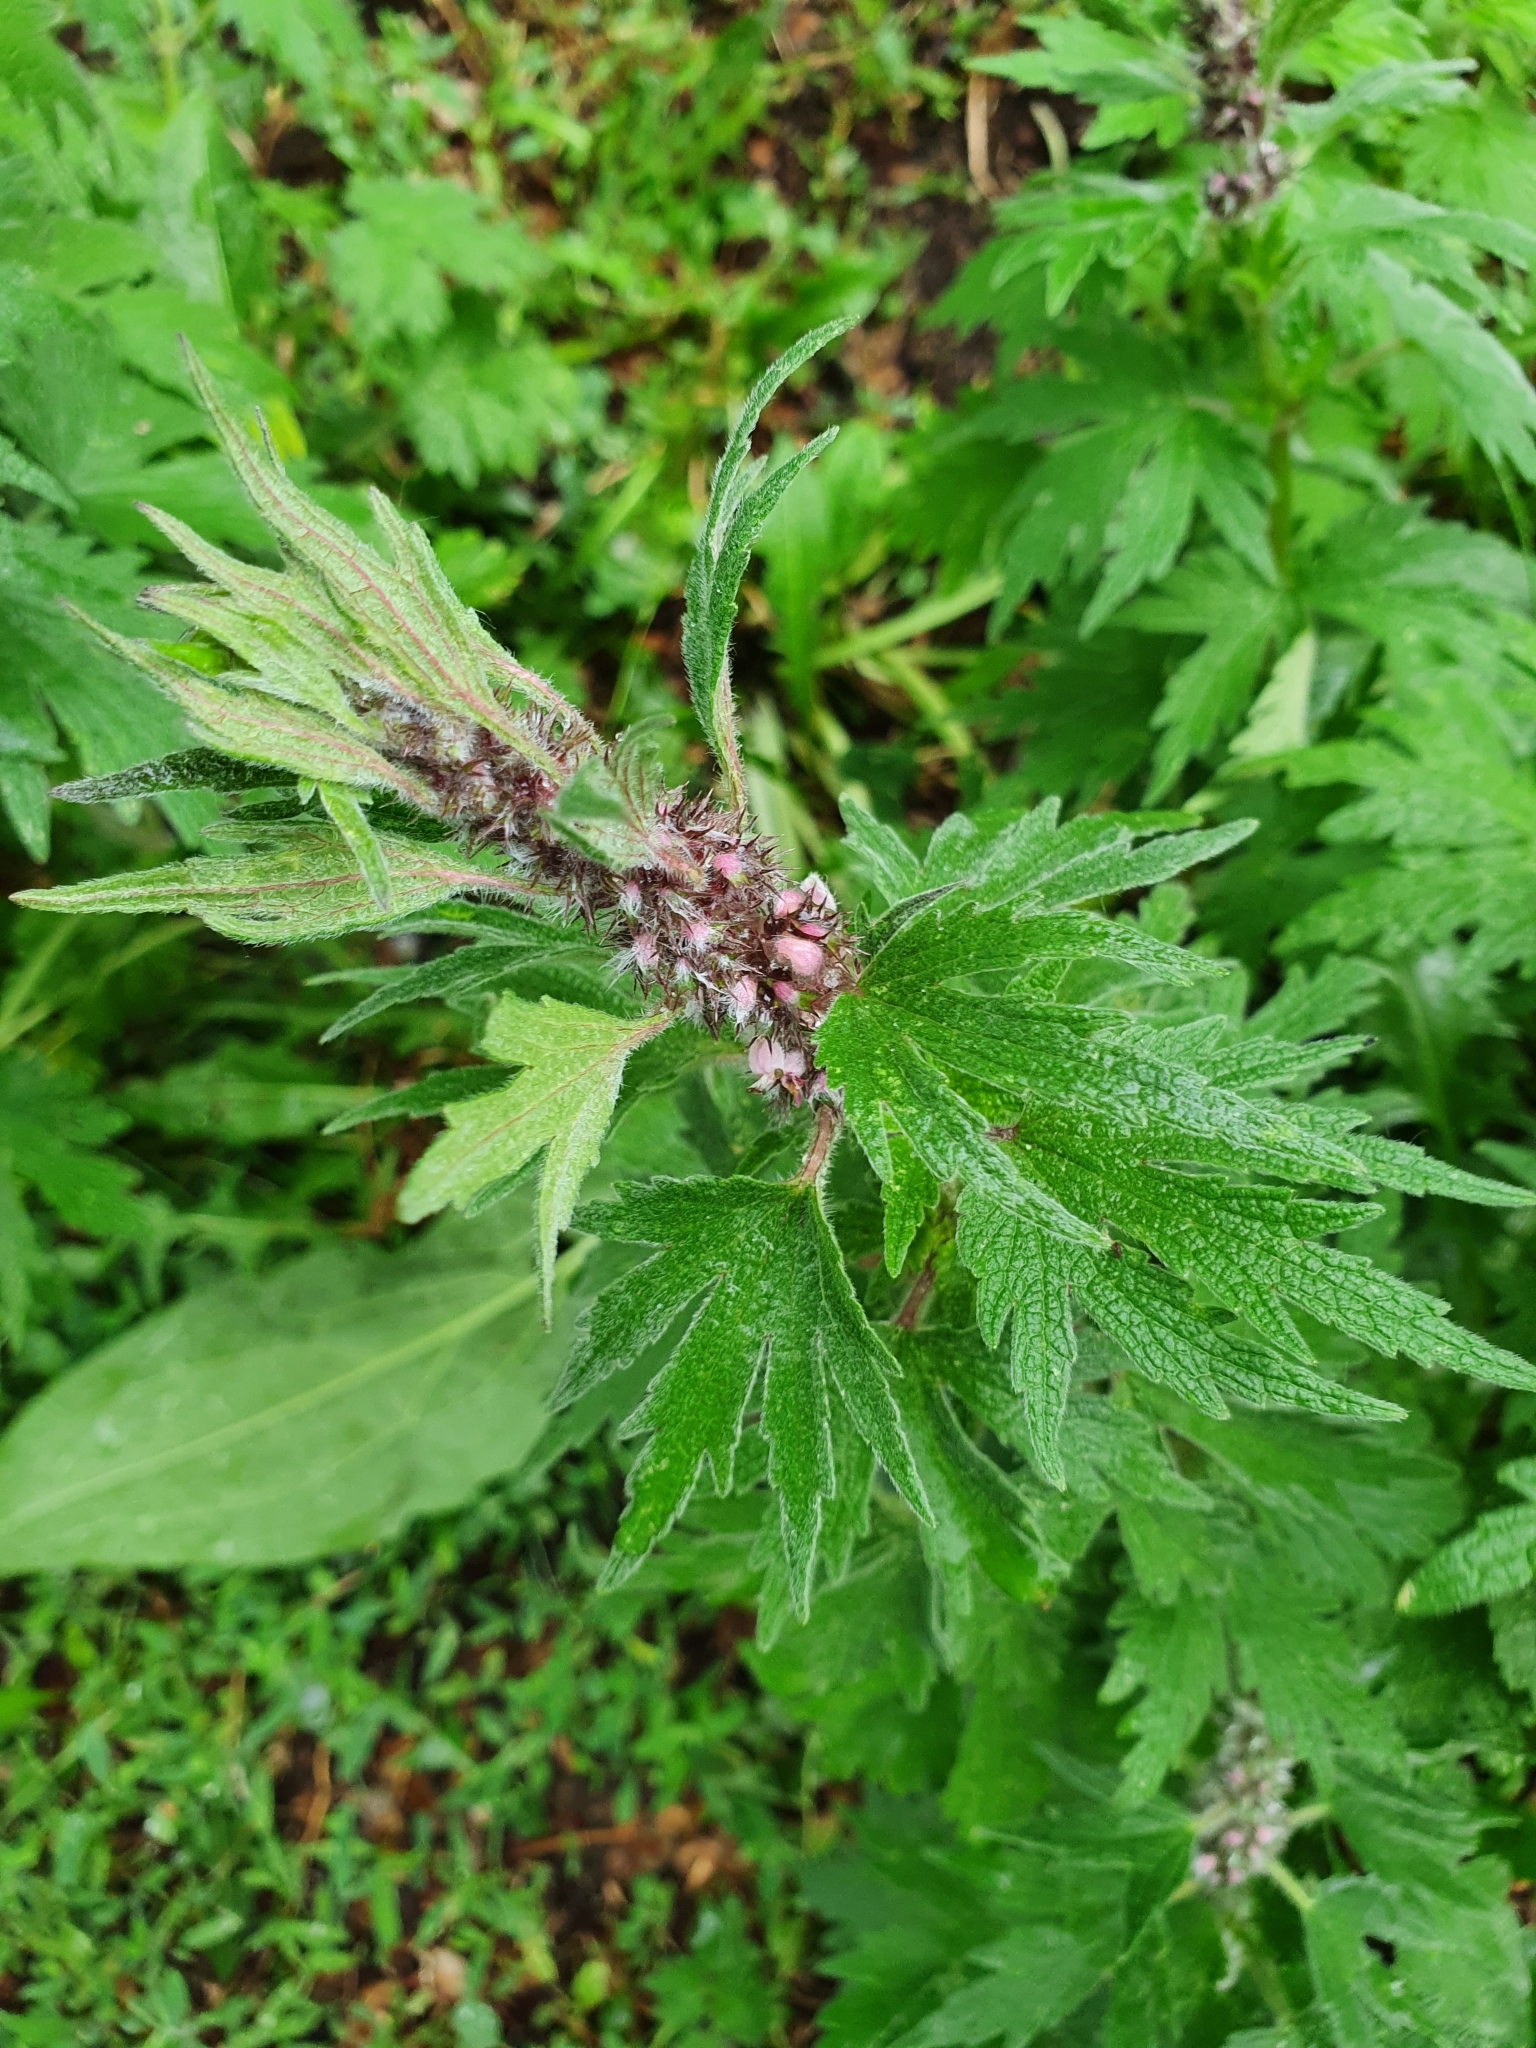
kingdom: Plantae
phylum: Tracheophyta
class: Magnoliopsida
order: Lamiales
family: Lamiaceae
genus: Leonurus
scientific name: Leonurus quinquelobatus
